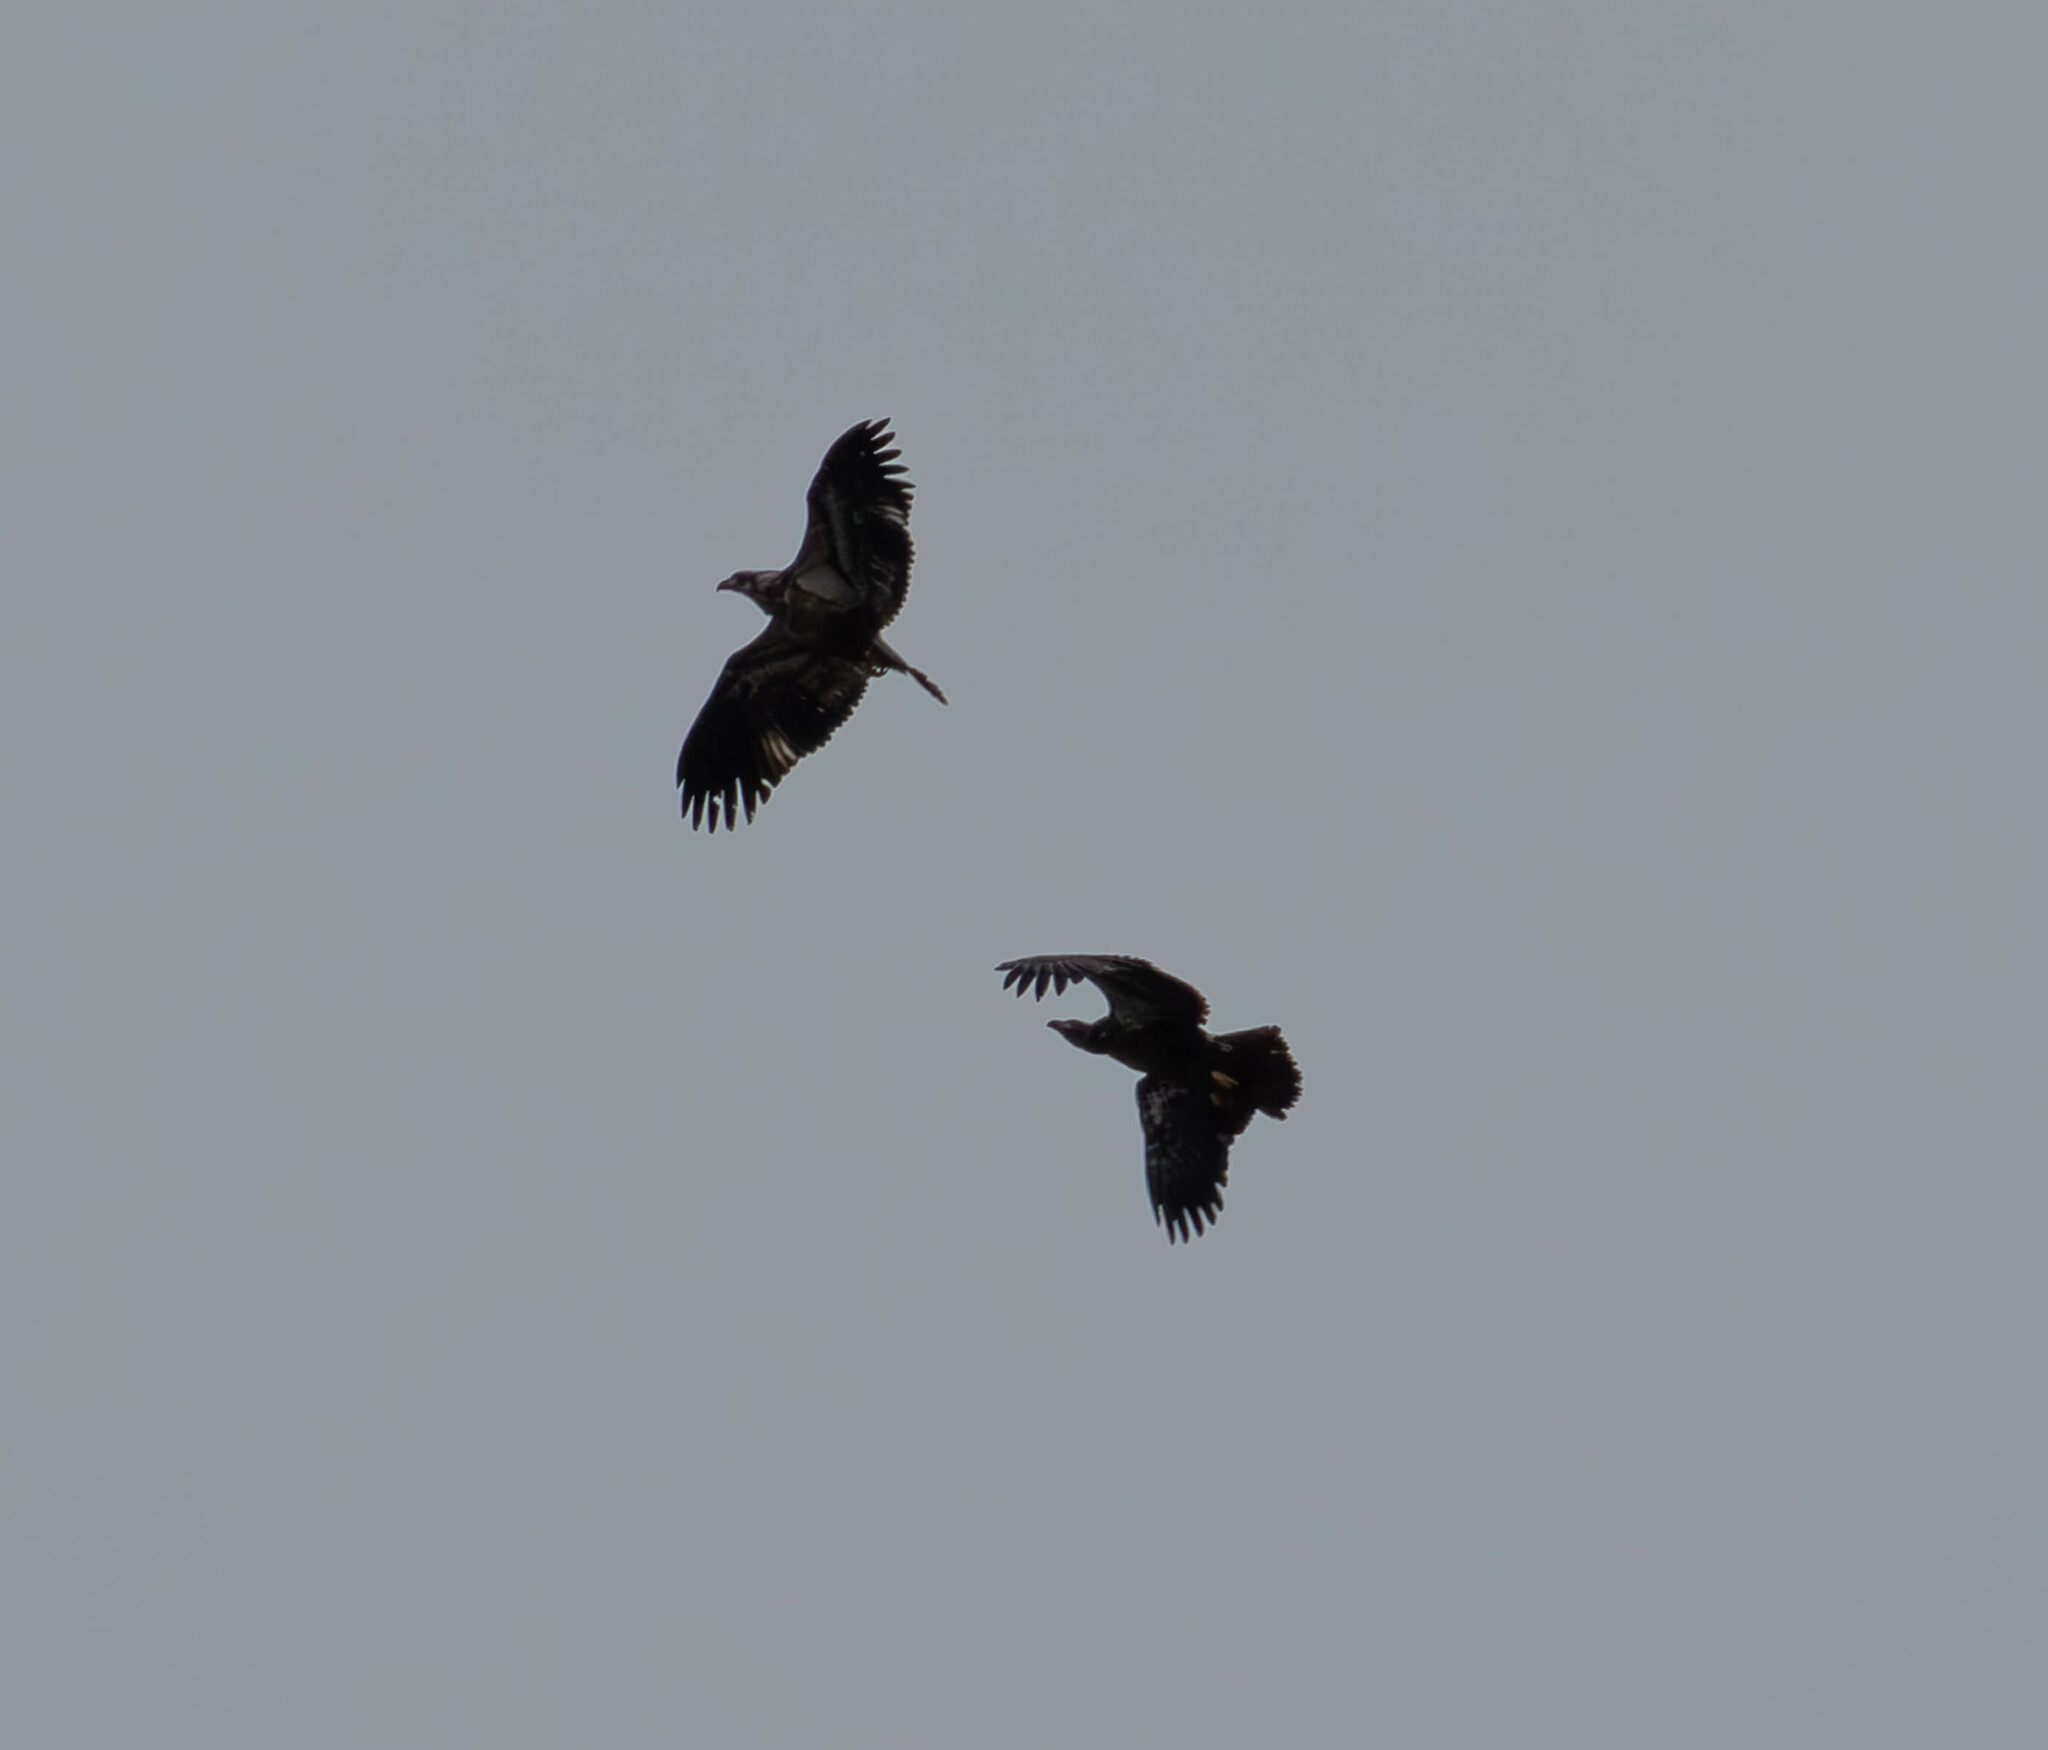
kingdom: Animalia
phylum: Chordata
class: Aves
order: Accipitriformes
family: Accipitridae
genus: Haliaeetus
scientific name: Haliaeetus leucocephalus
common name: Bald eagle
